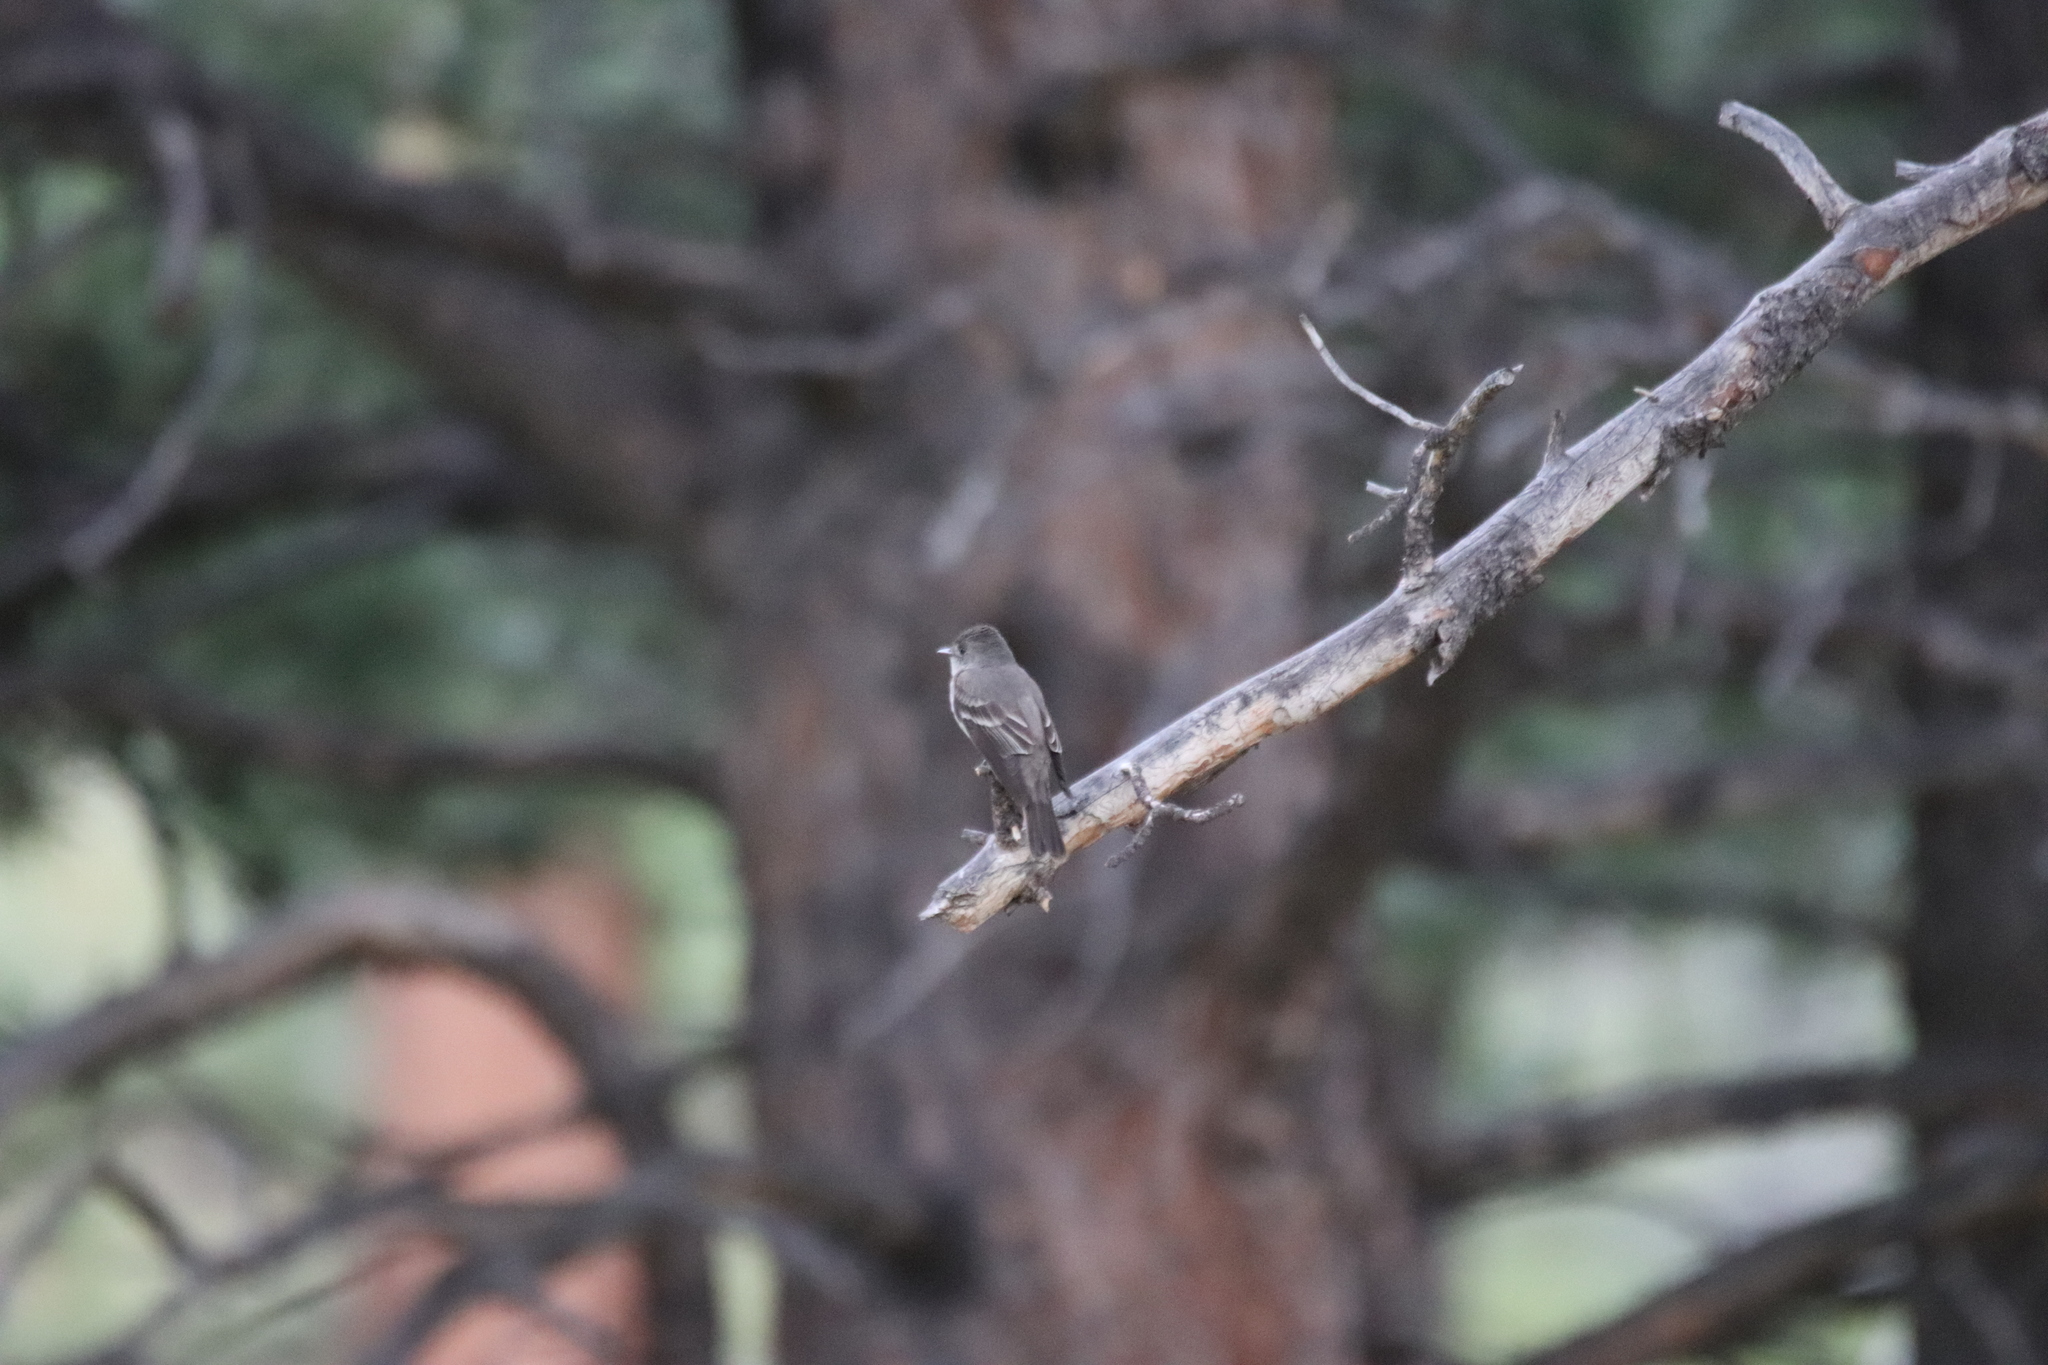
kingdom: Animalia
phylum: Chordata
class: Aves
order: Passeriformes
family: Tyrannidae
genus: Contopus
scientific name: Contopus sordidulus
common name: Western wood-pewee
